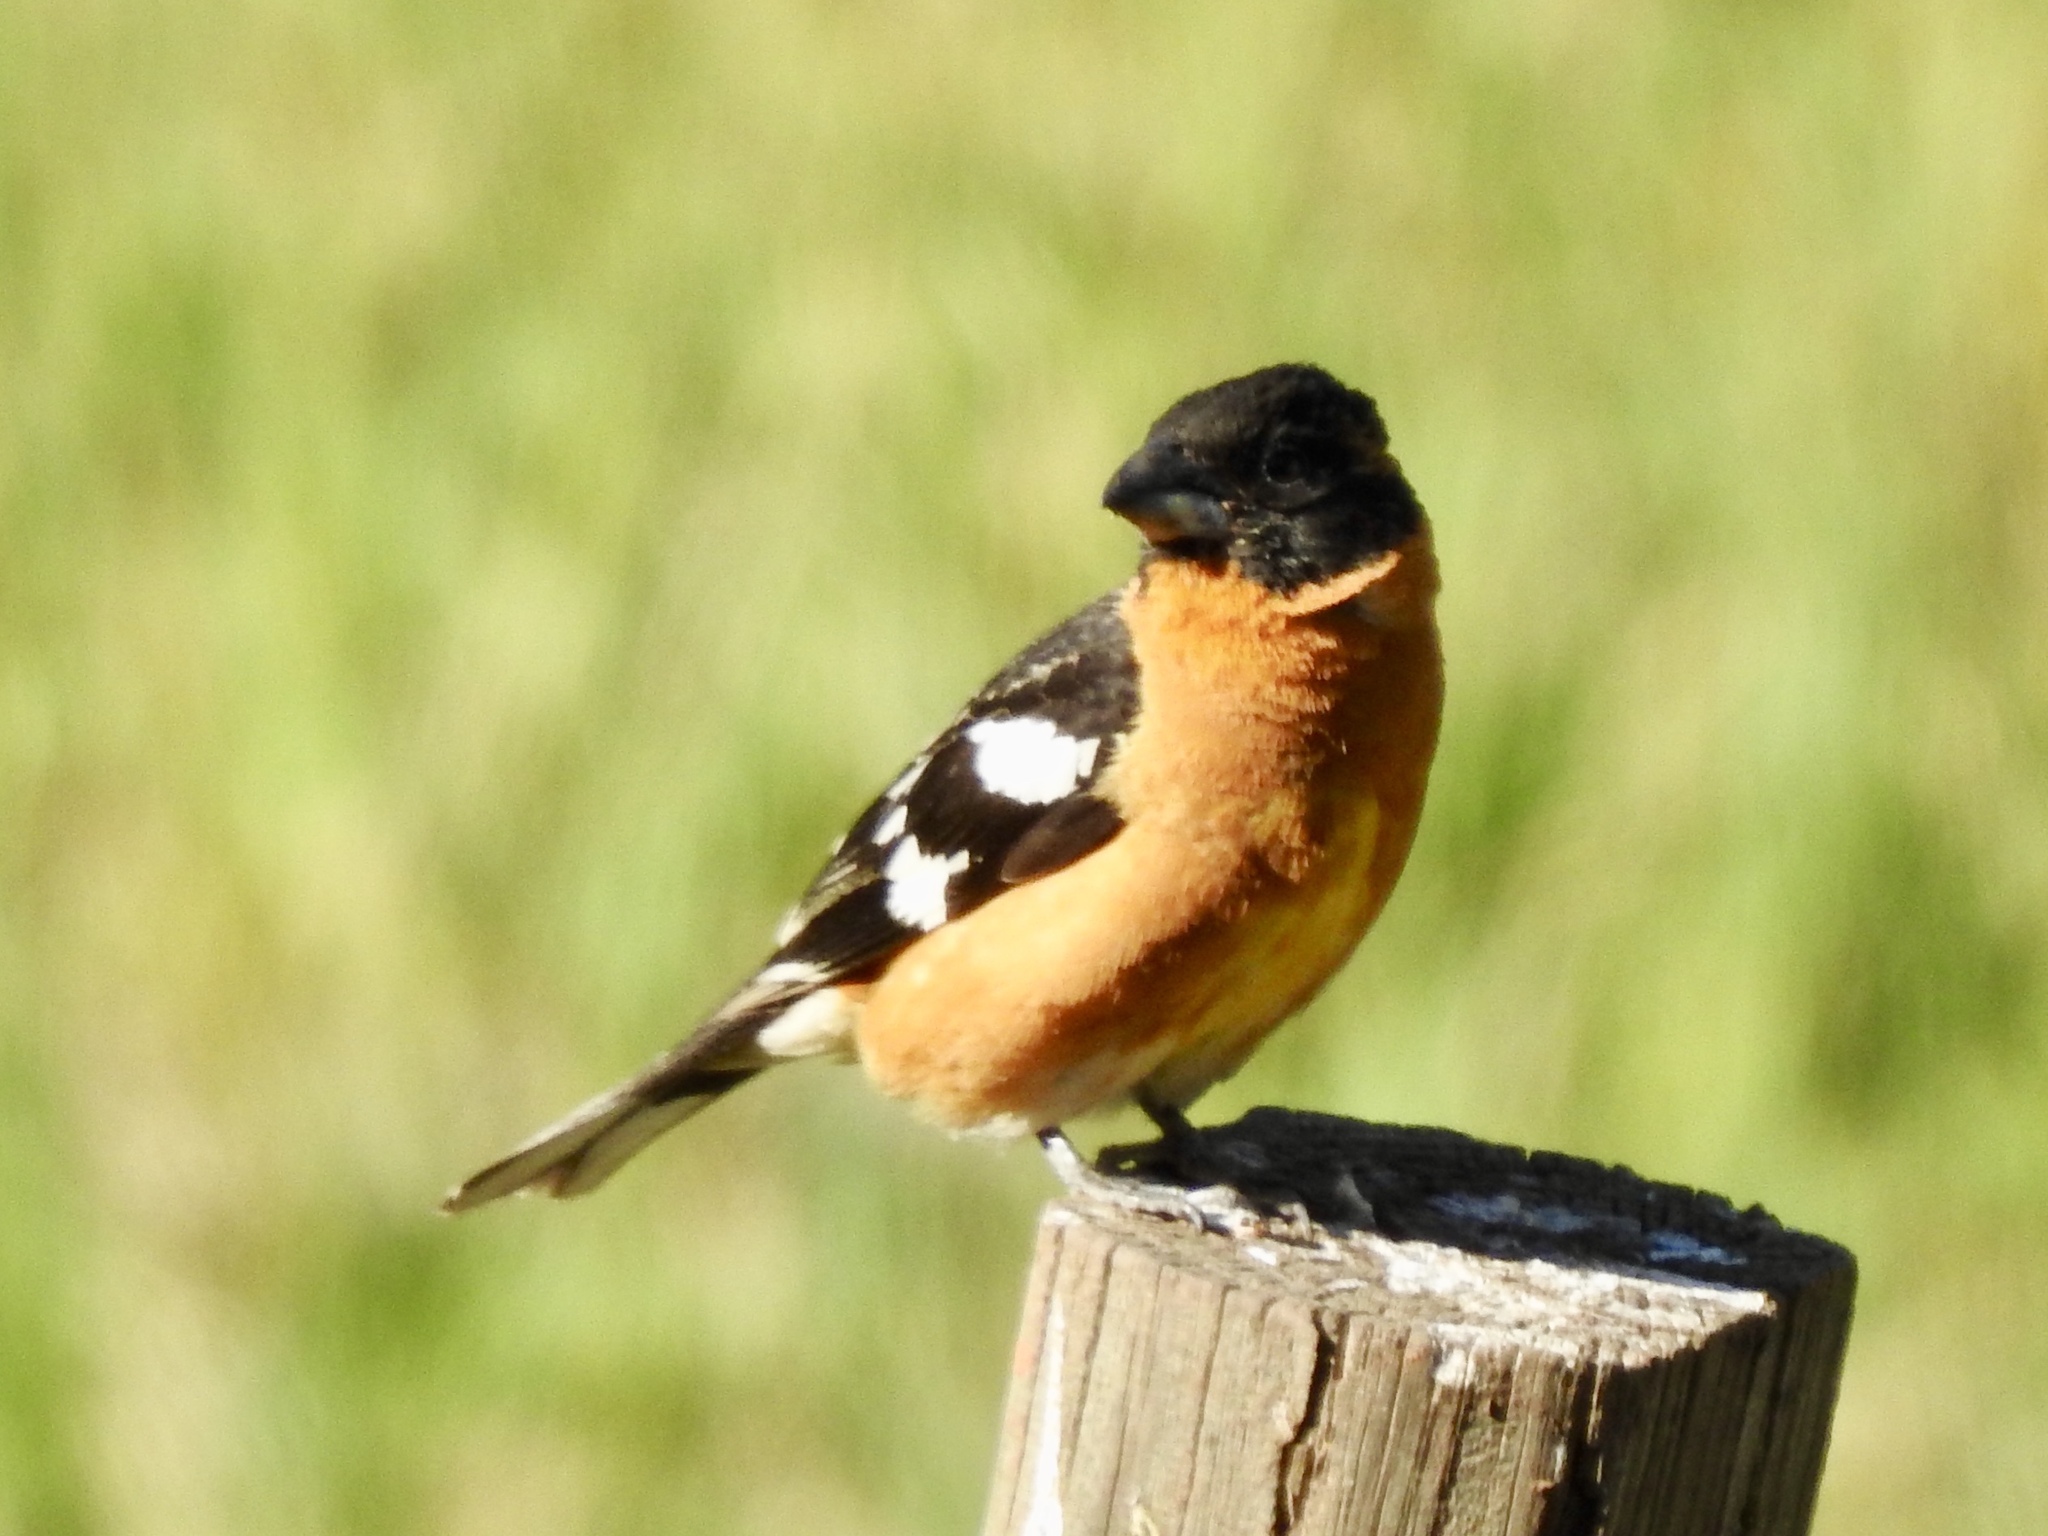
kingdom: Animalia
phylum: Chordata
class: Aves
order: Passeriformes
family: Cardinalidae
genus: Pheucticus
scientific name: Pheucticus melanocephalus
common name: Black-headed grosbeak
